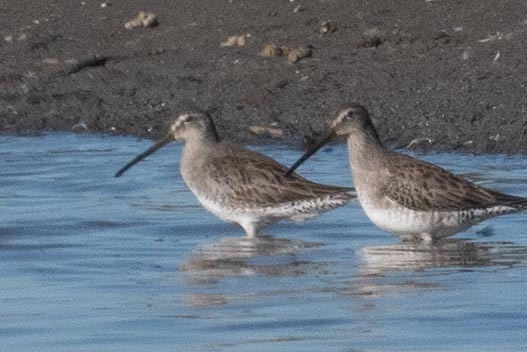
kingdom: Animalia
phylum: Chordata
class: Aves
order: Charadriiformes
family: Scolopacidae
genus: Limnodromus
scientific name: Limnodromus scolopaceus
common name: Long-billed dowitcher
